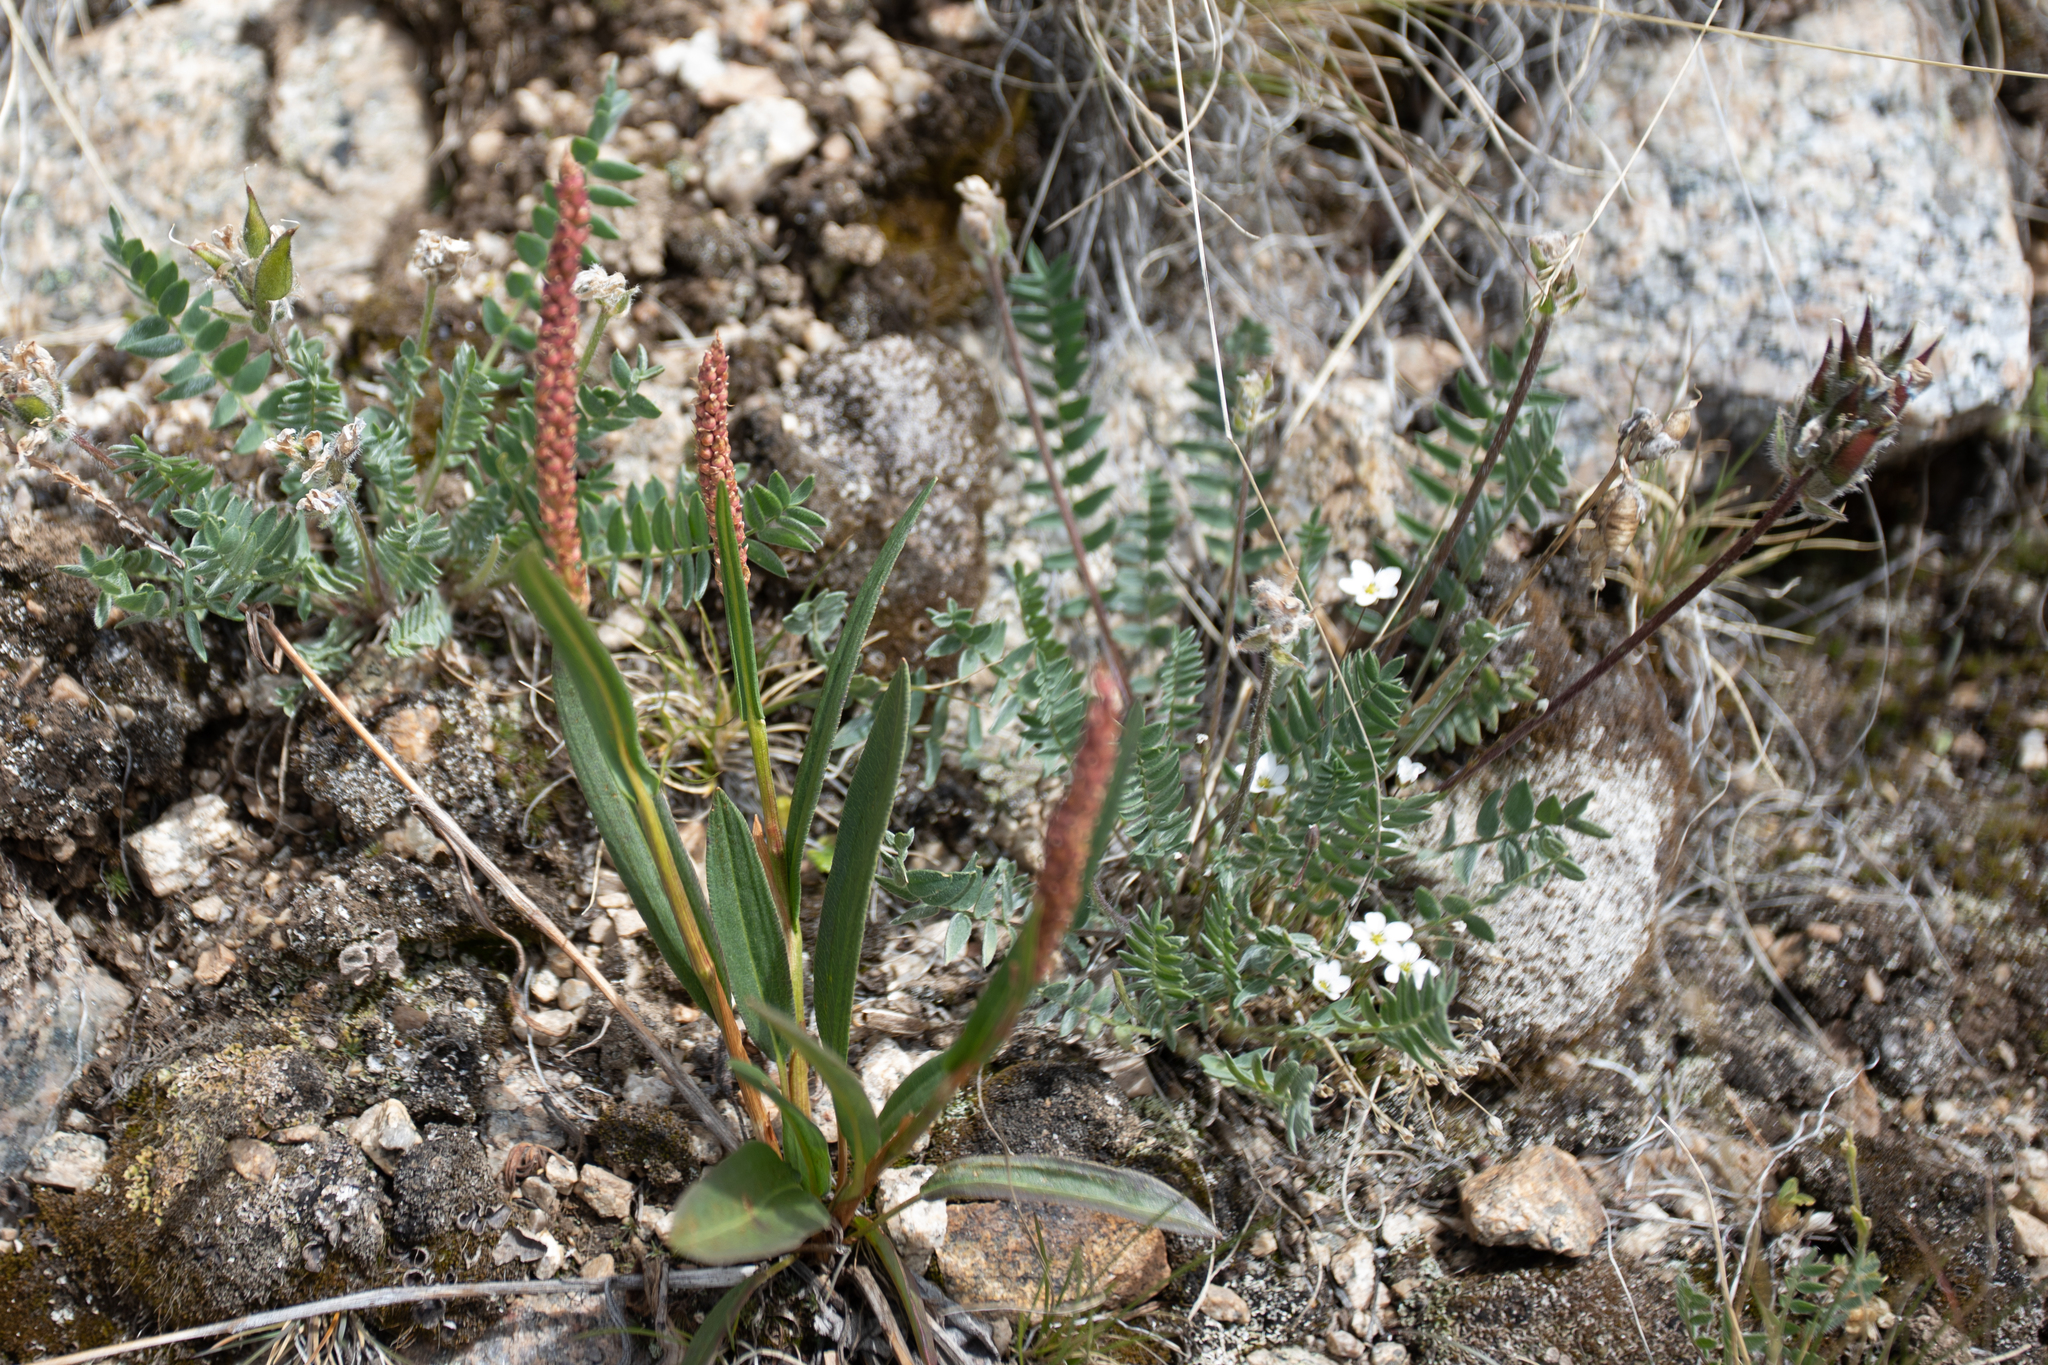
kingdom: Plantae
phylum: Tracheophyta
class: Magnoliopsida
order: Caryophyllales
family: Polygonaceae
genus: Bistorta
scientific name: Bistorta vivipara
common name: Alpine bistort
